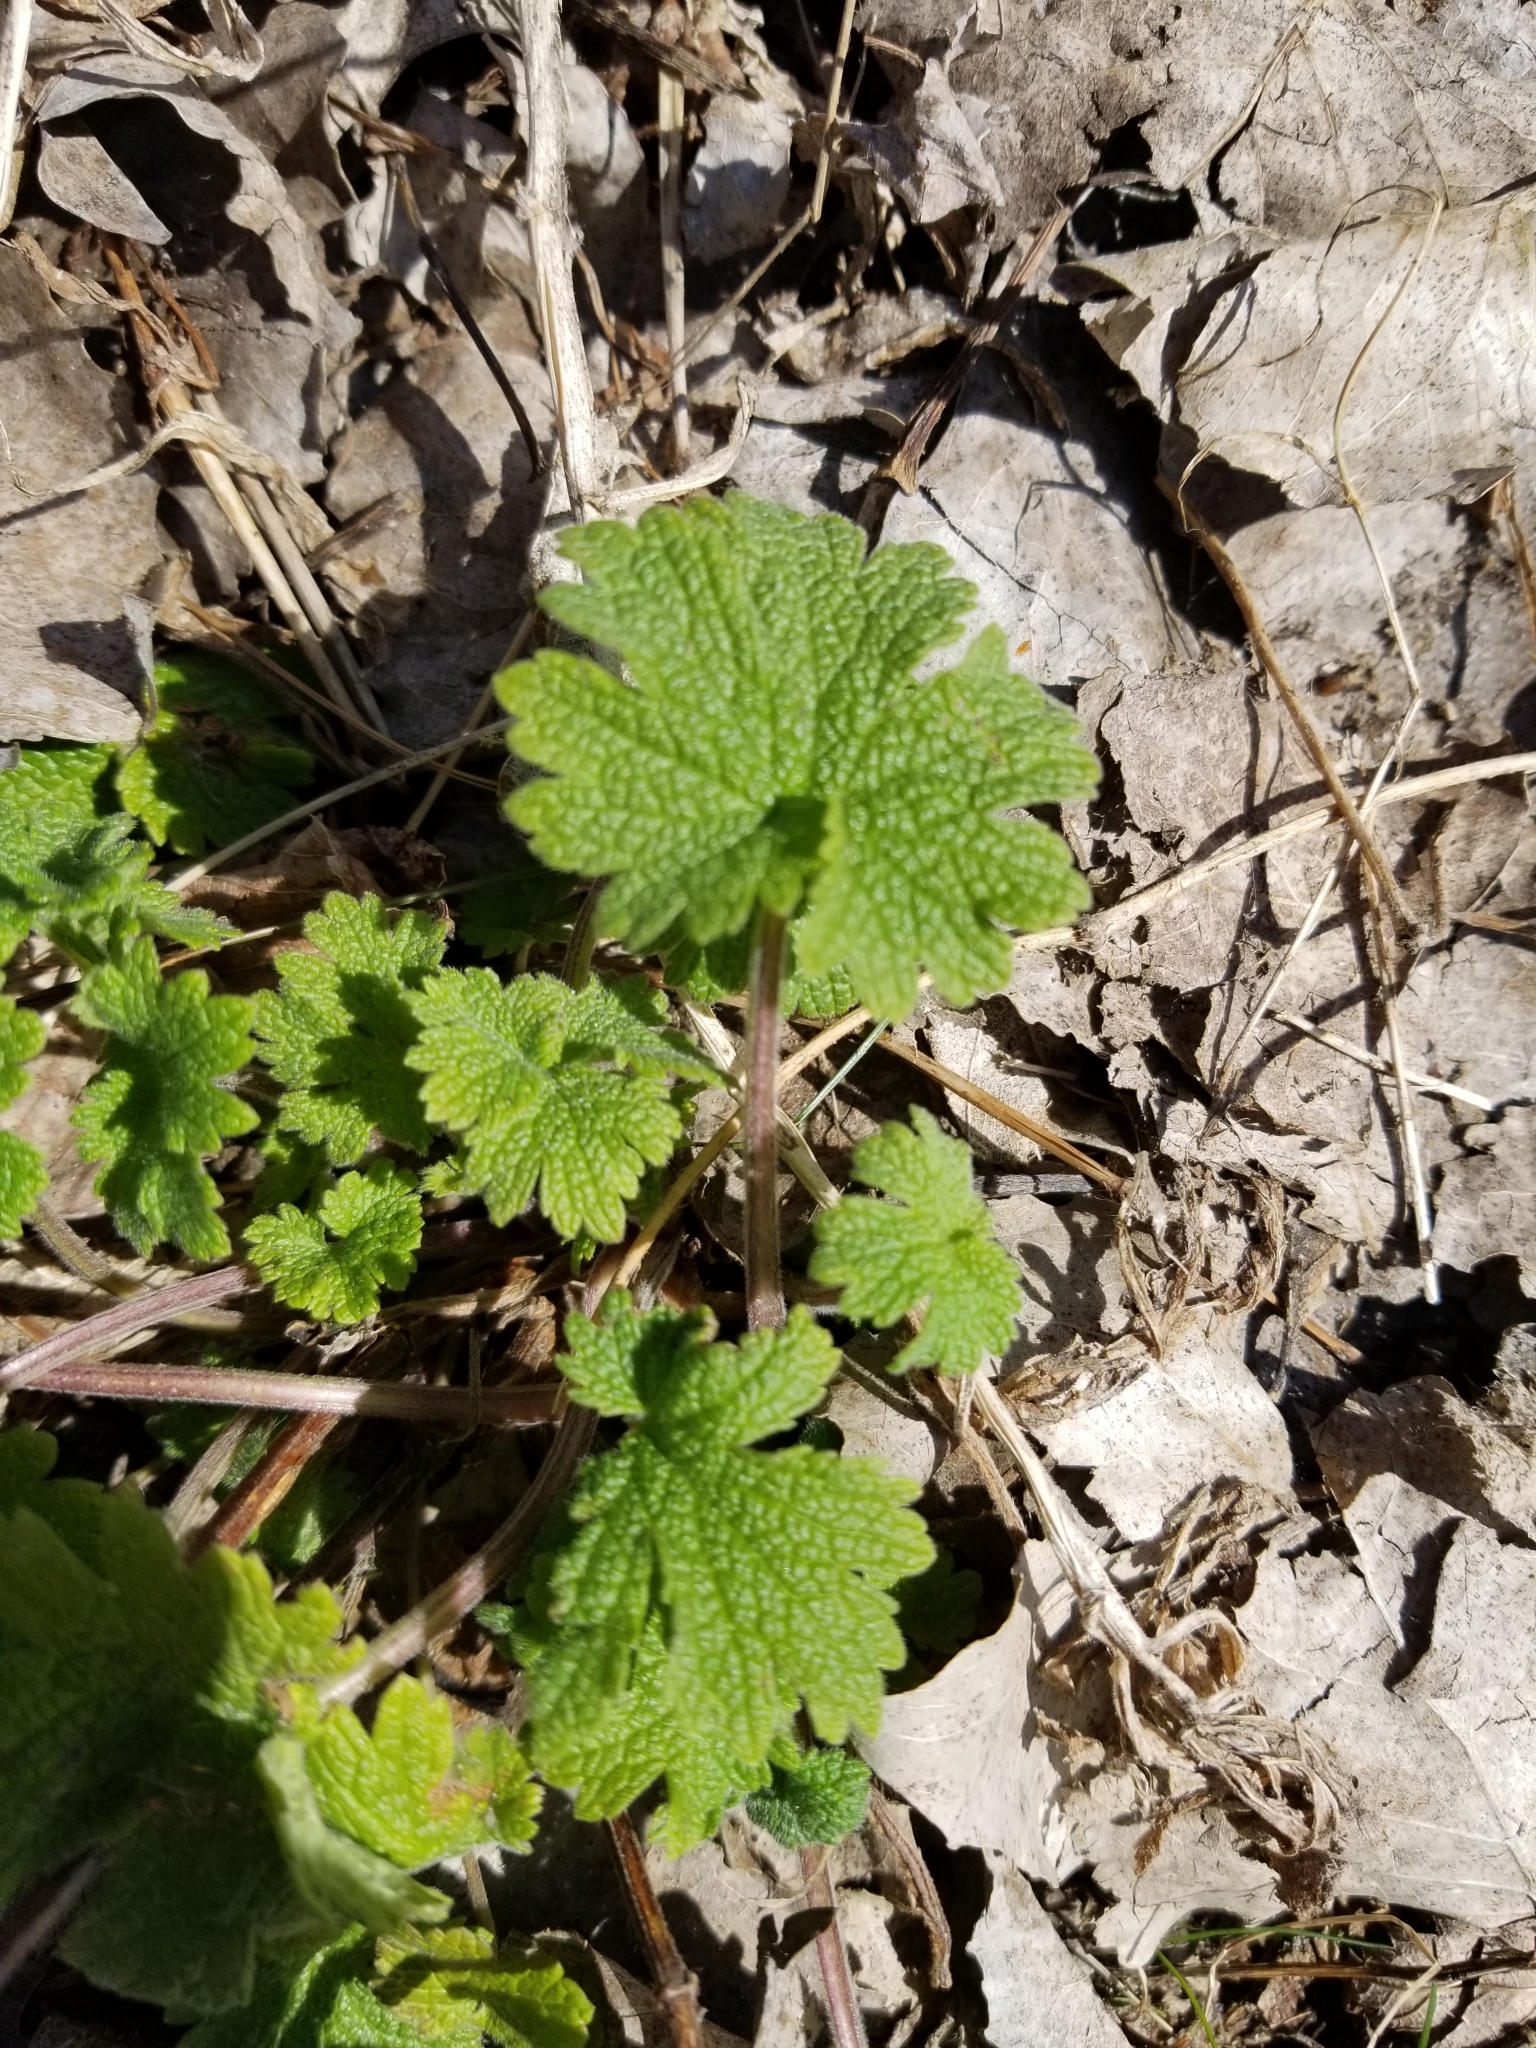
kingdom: Plantae
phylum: Tracheophyta
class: Magnoliopsida
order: Lamiales
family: Lamiaceae
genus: Leonurus
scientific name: Leonurus cardiaca
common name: Motherwort
